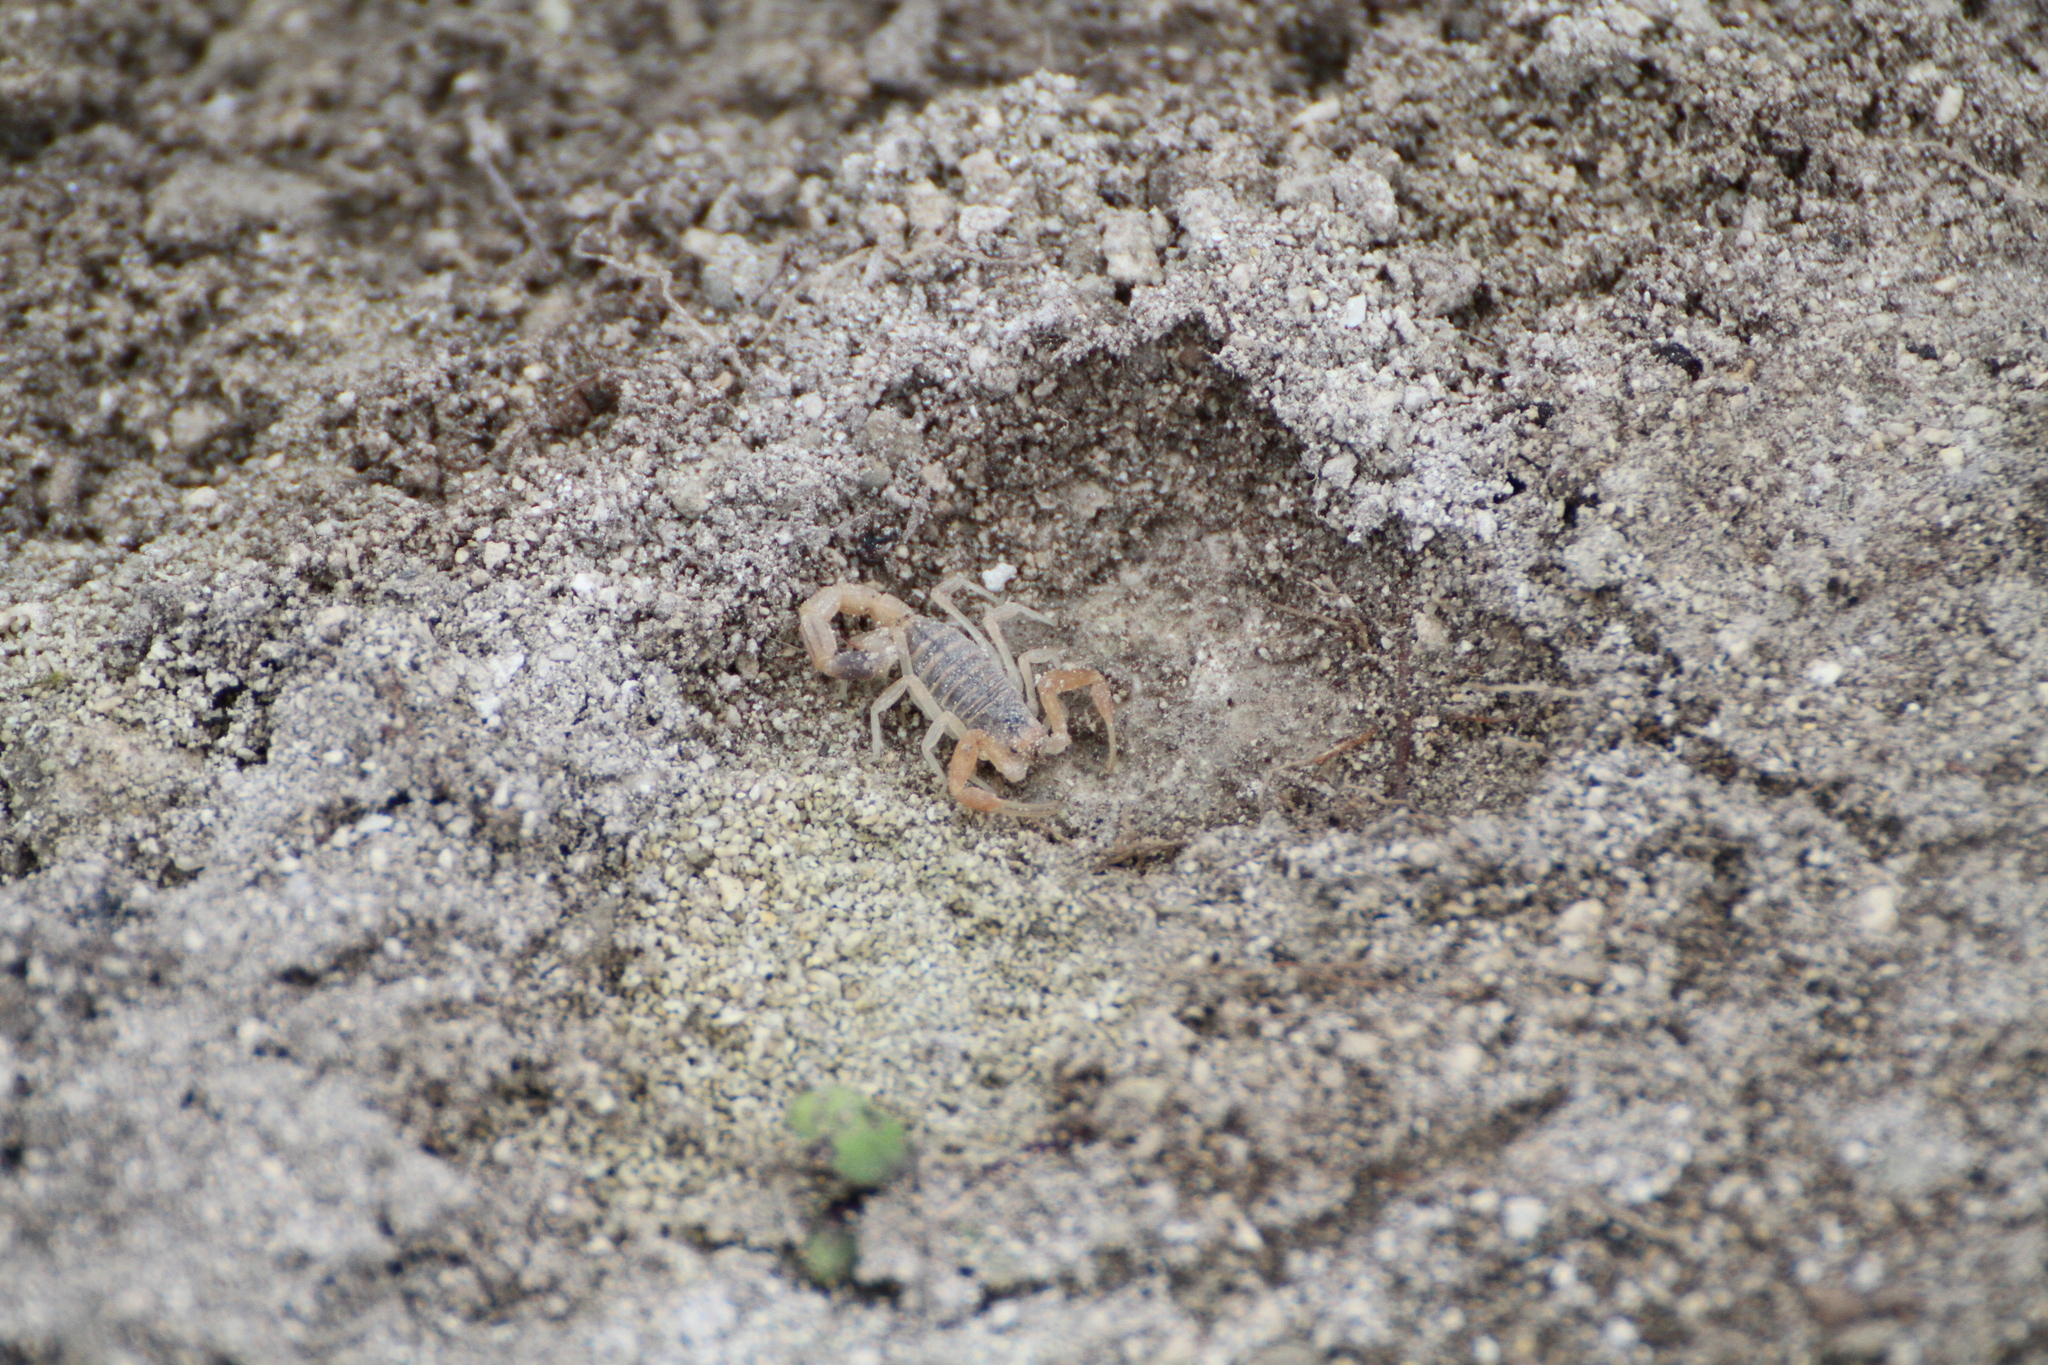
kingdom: Animalia
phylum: Arthropoda
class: Arachnida
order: Scorpiones
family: Buthidae
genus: Buthus
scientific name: Buthus occitanus
